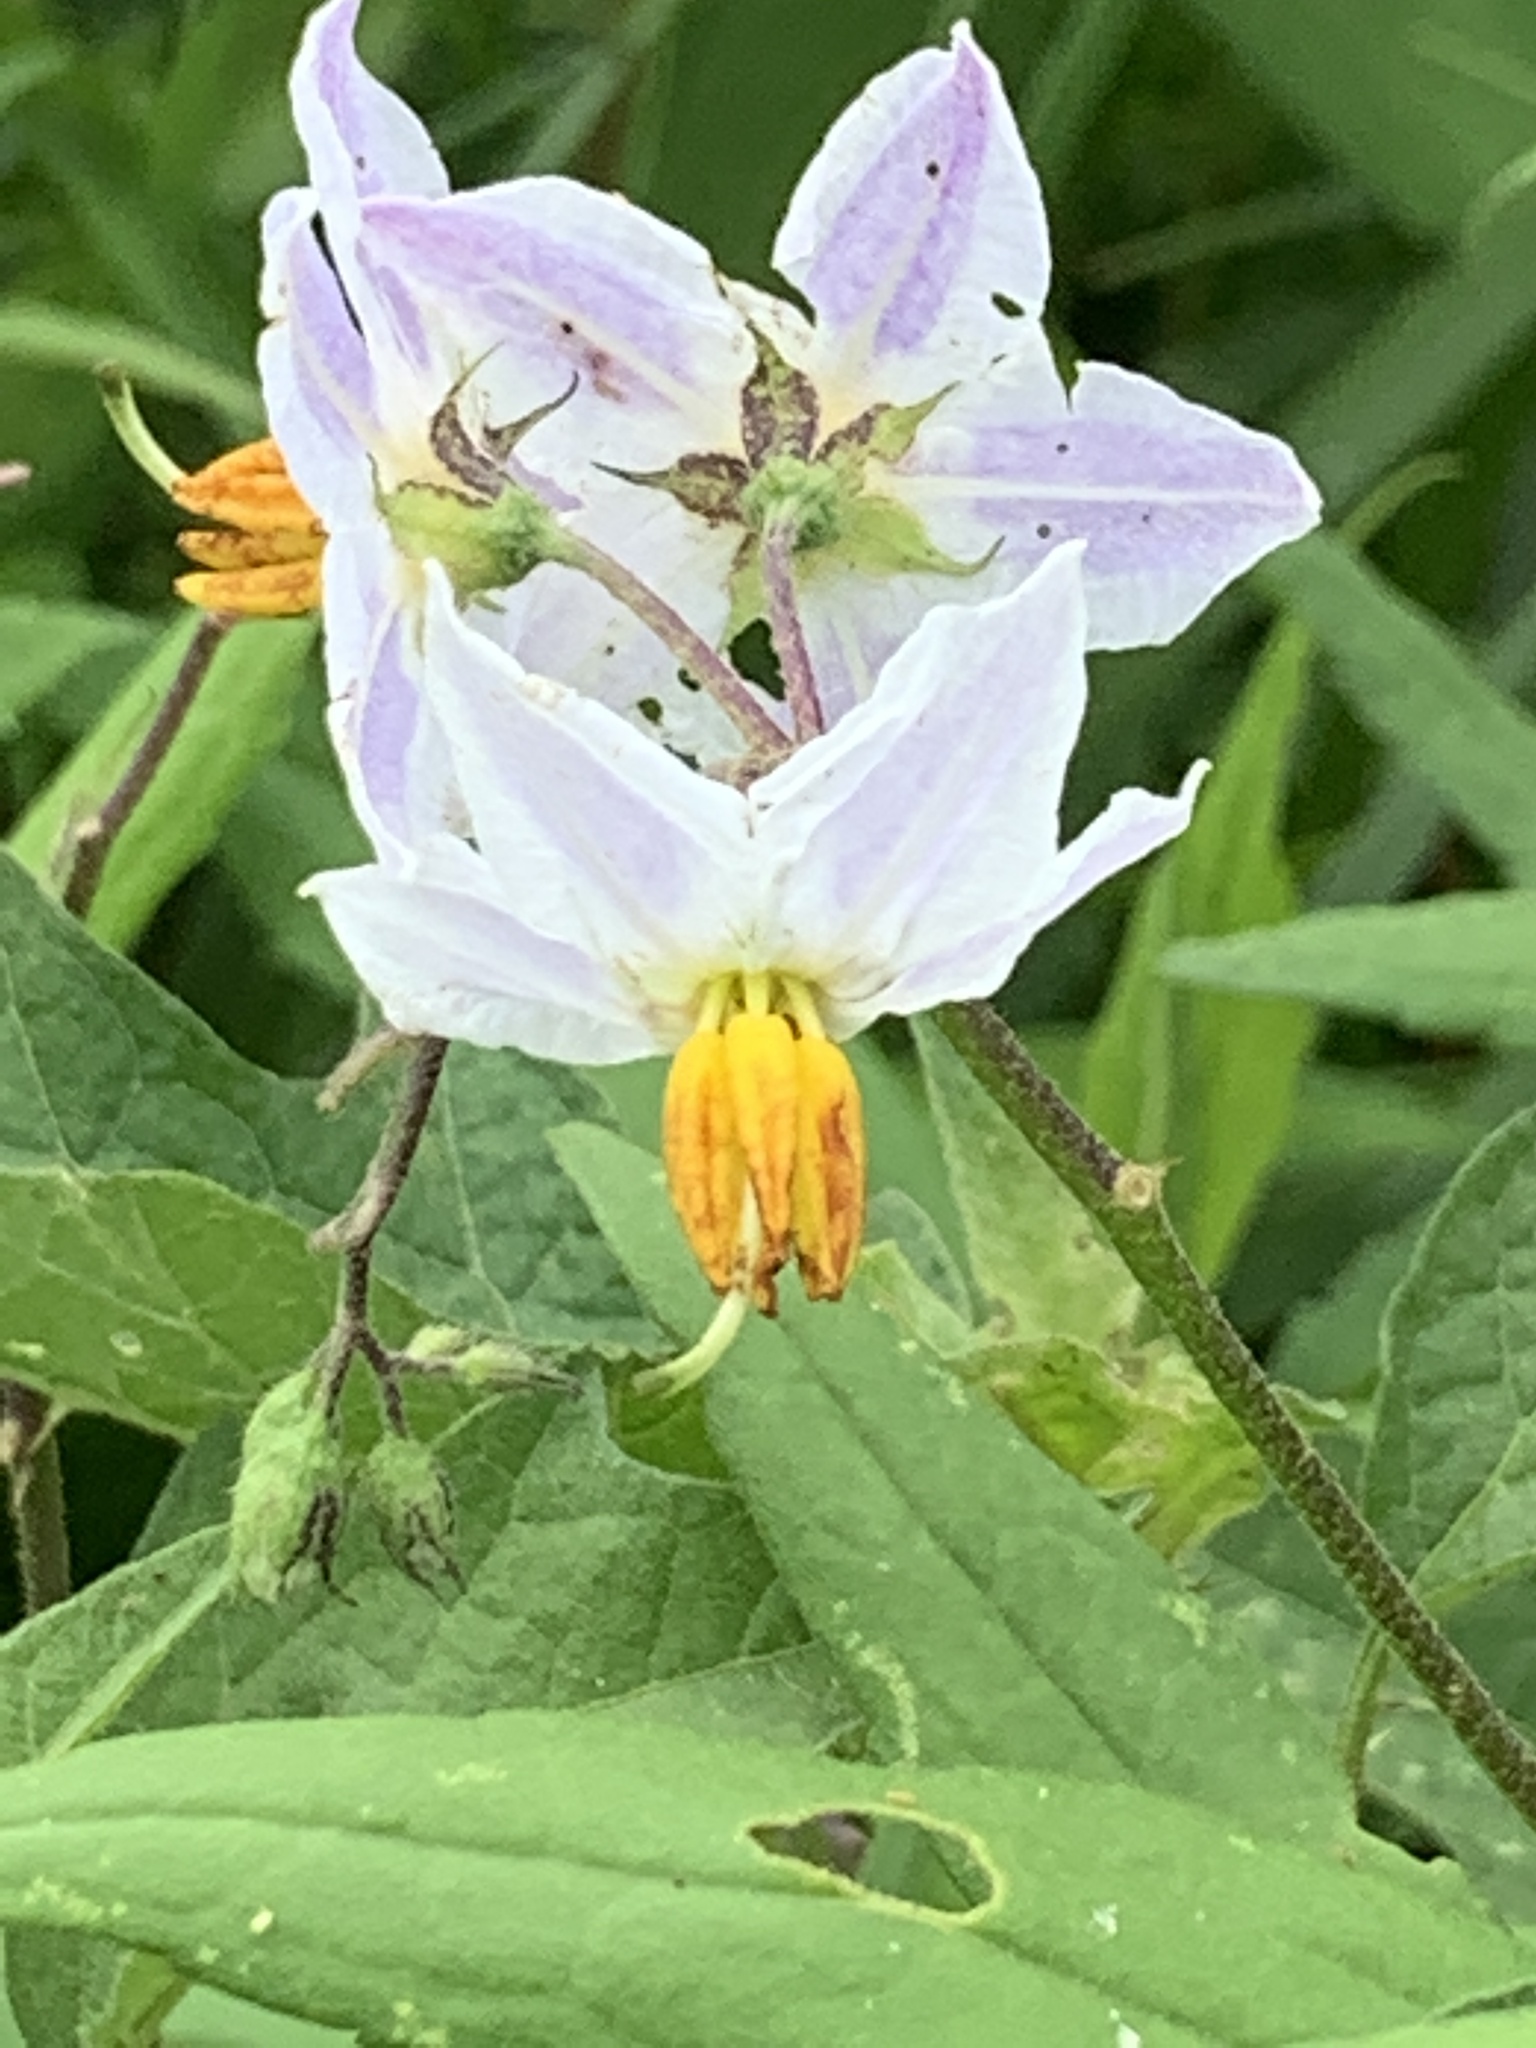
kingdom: Plantae
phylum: Tracheophyta
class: Magnoliopsida
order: Solanales
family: Solanaceae
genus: Solanum
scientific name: Solanum carolinense
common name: Horse-nettle
